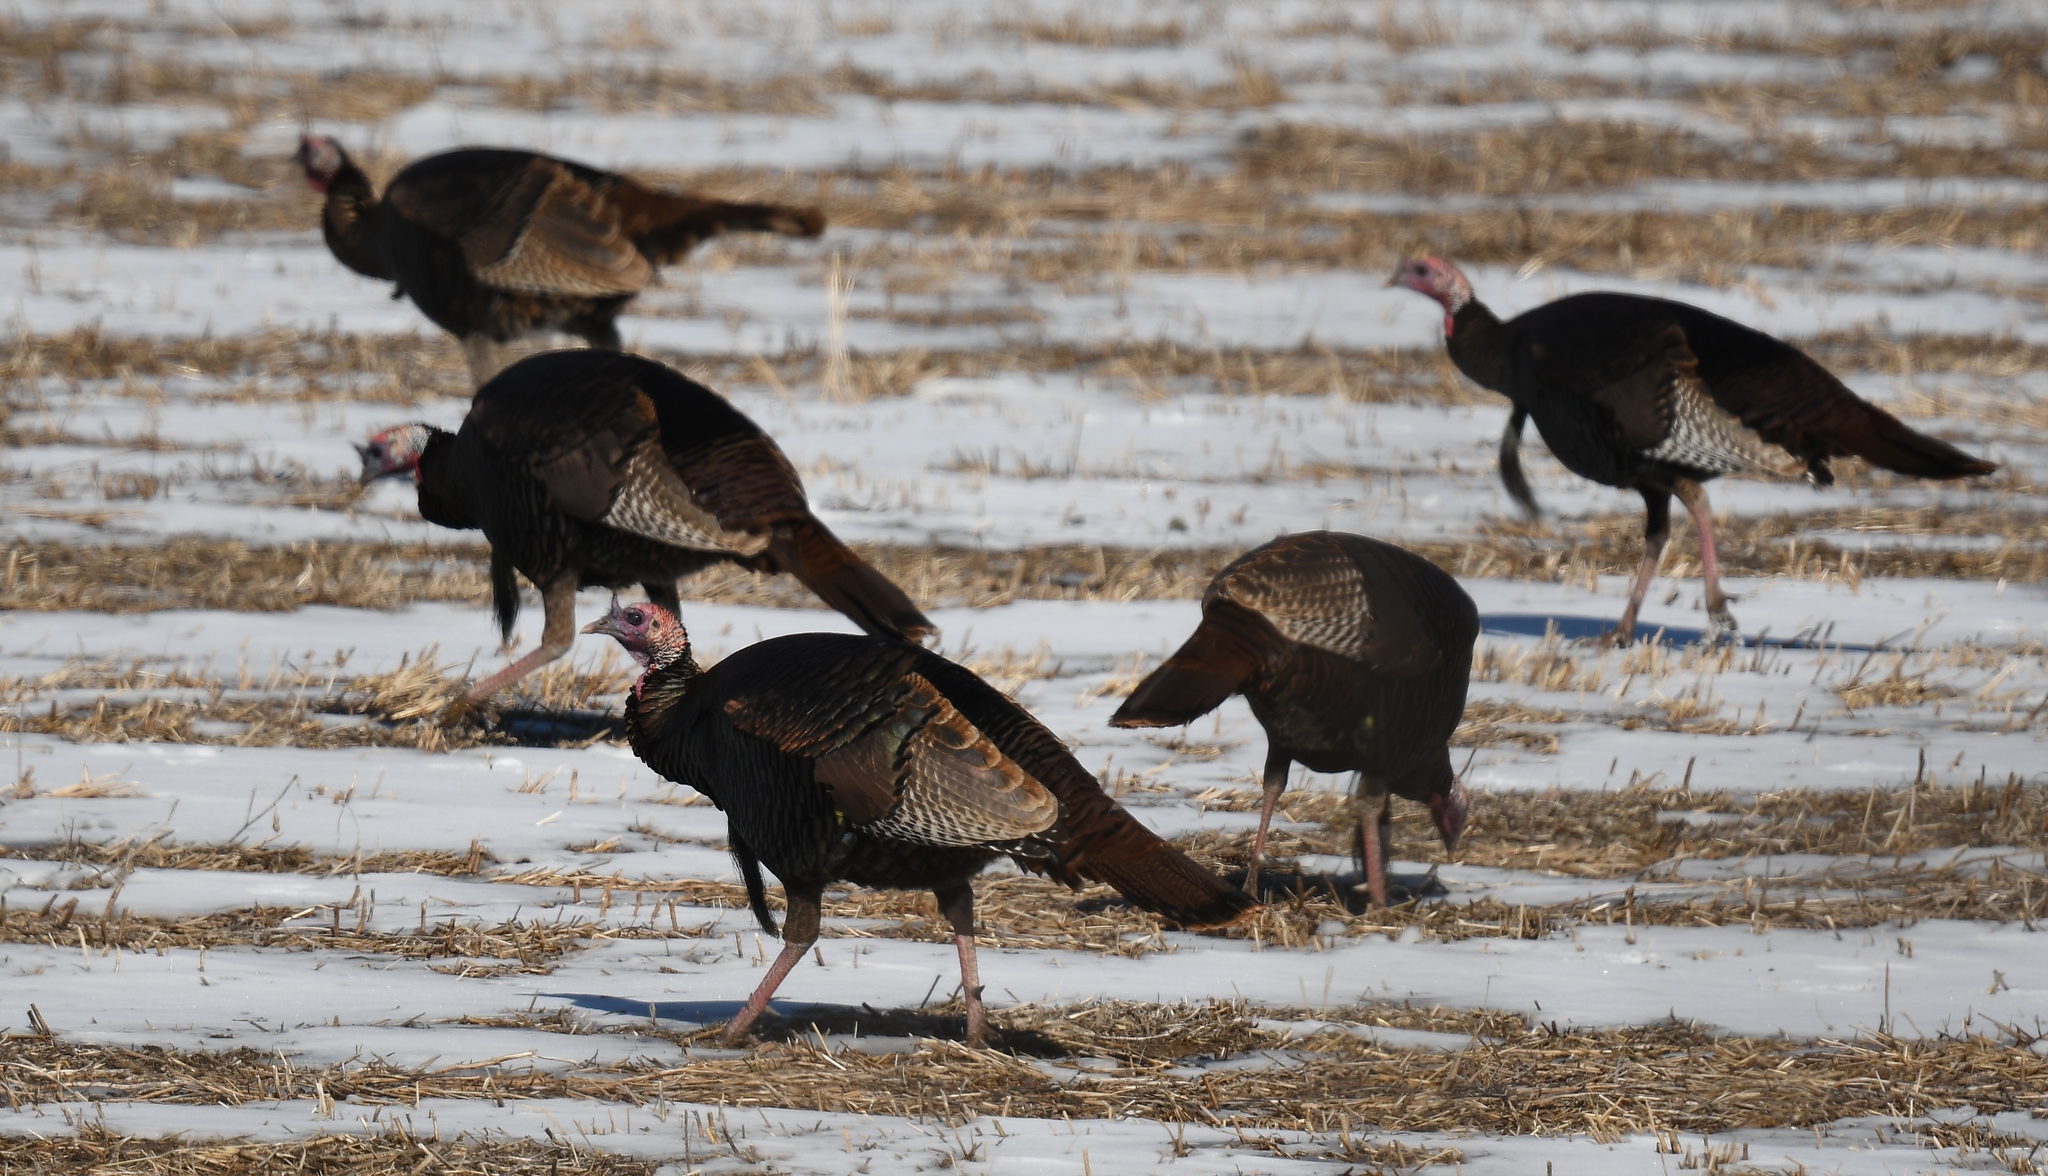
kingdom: Animalia
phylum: Chordata
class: Aves
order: Galliformes
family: Phasianidae
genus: Meleagris
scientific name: Meleagris gallopavo
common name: Wild turkey
